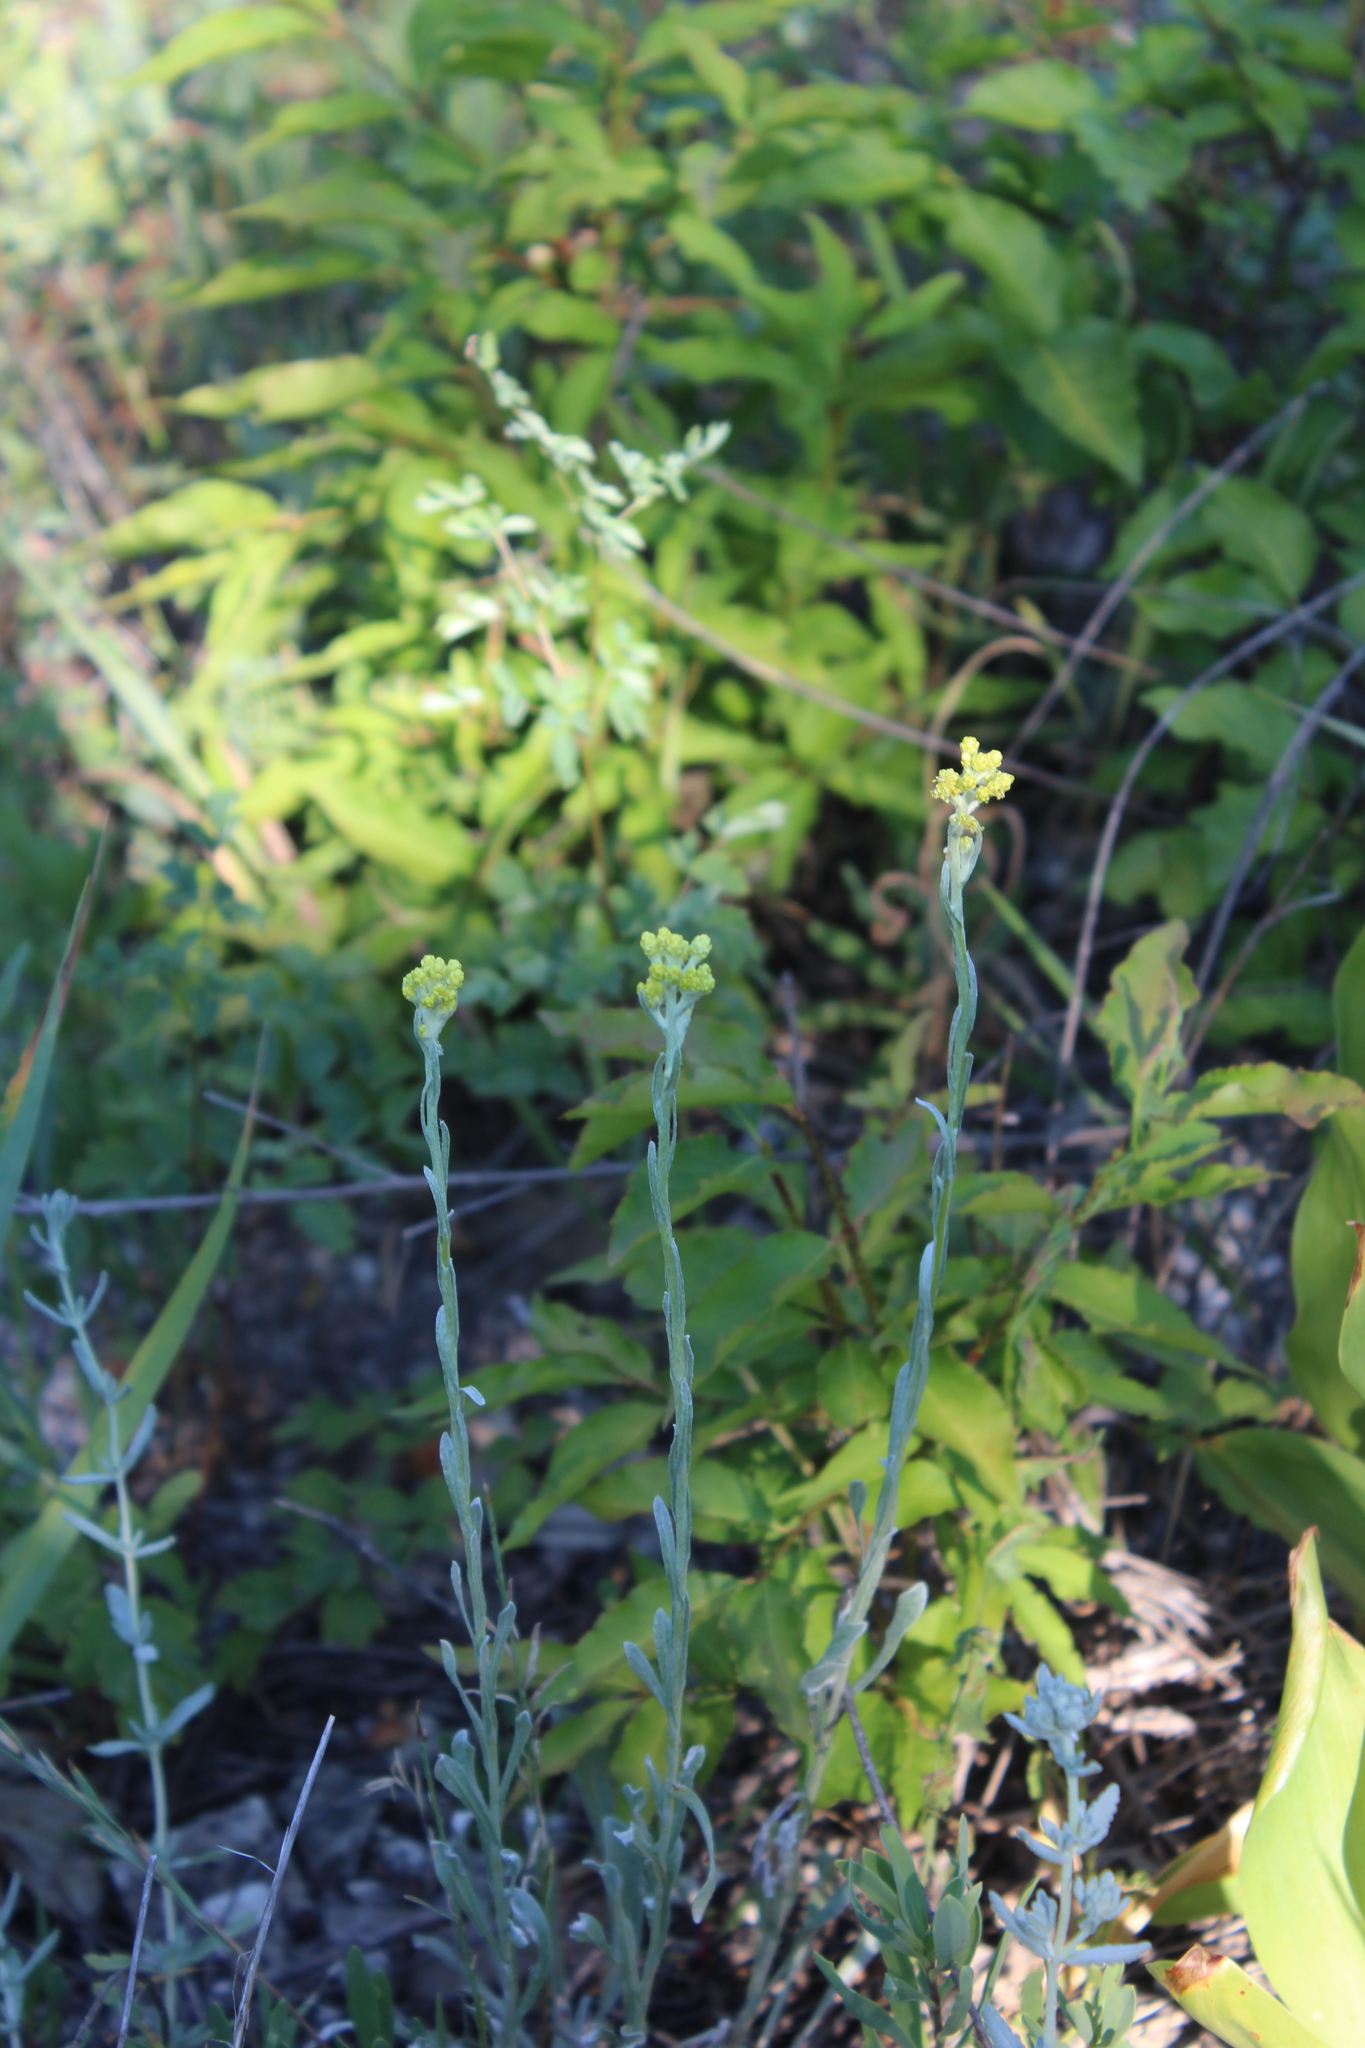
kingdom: Plantae
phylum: Tracheophyta
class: Magnoliopsida
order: Asterales
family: Asteraceae
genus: Helichrysum
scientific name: Helichrysum arenarium
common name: Strawflower
